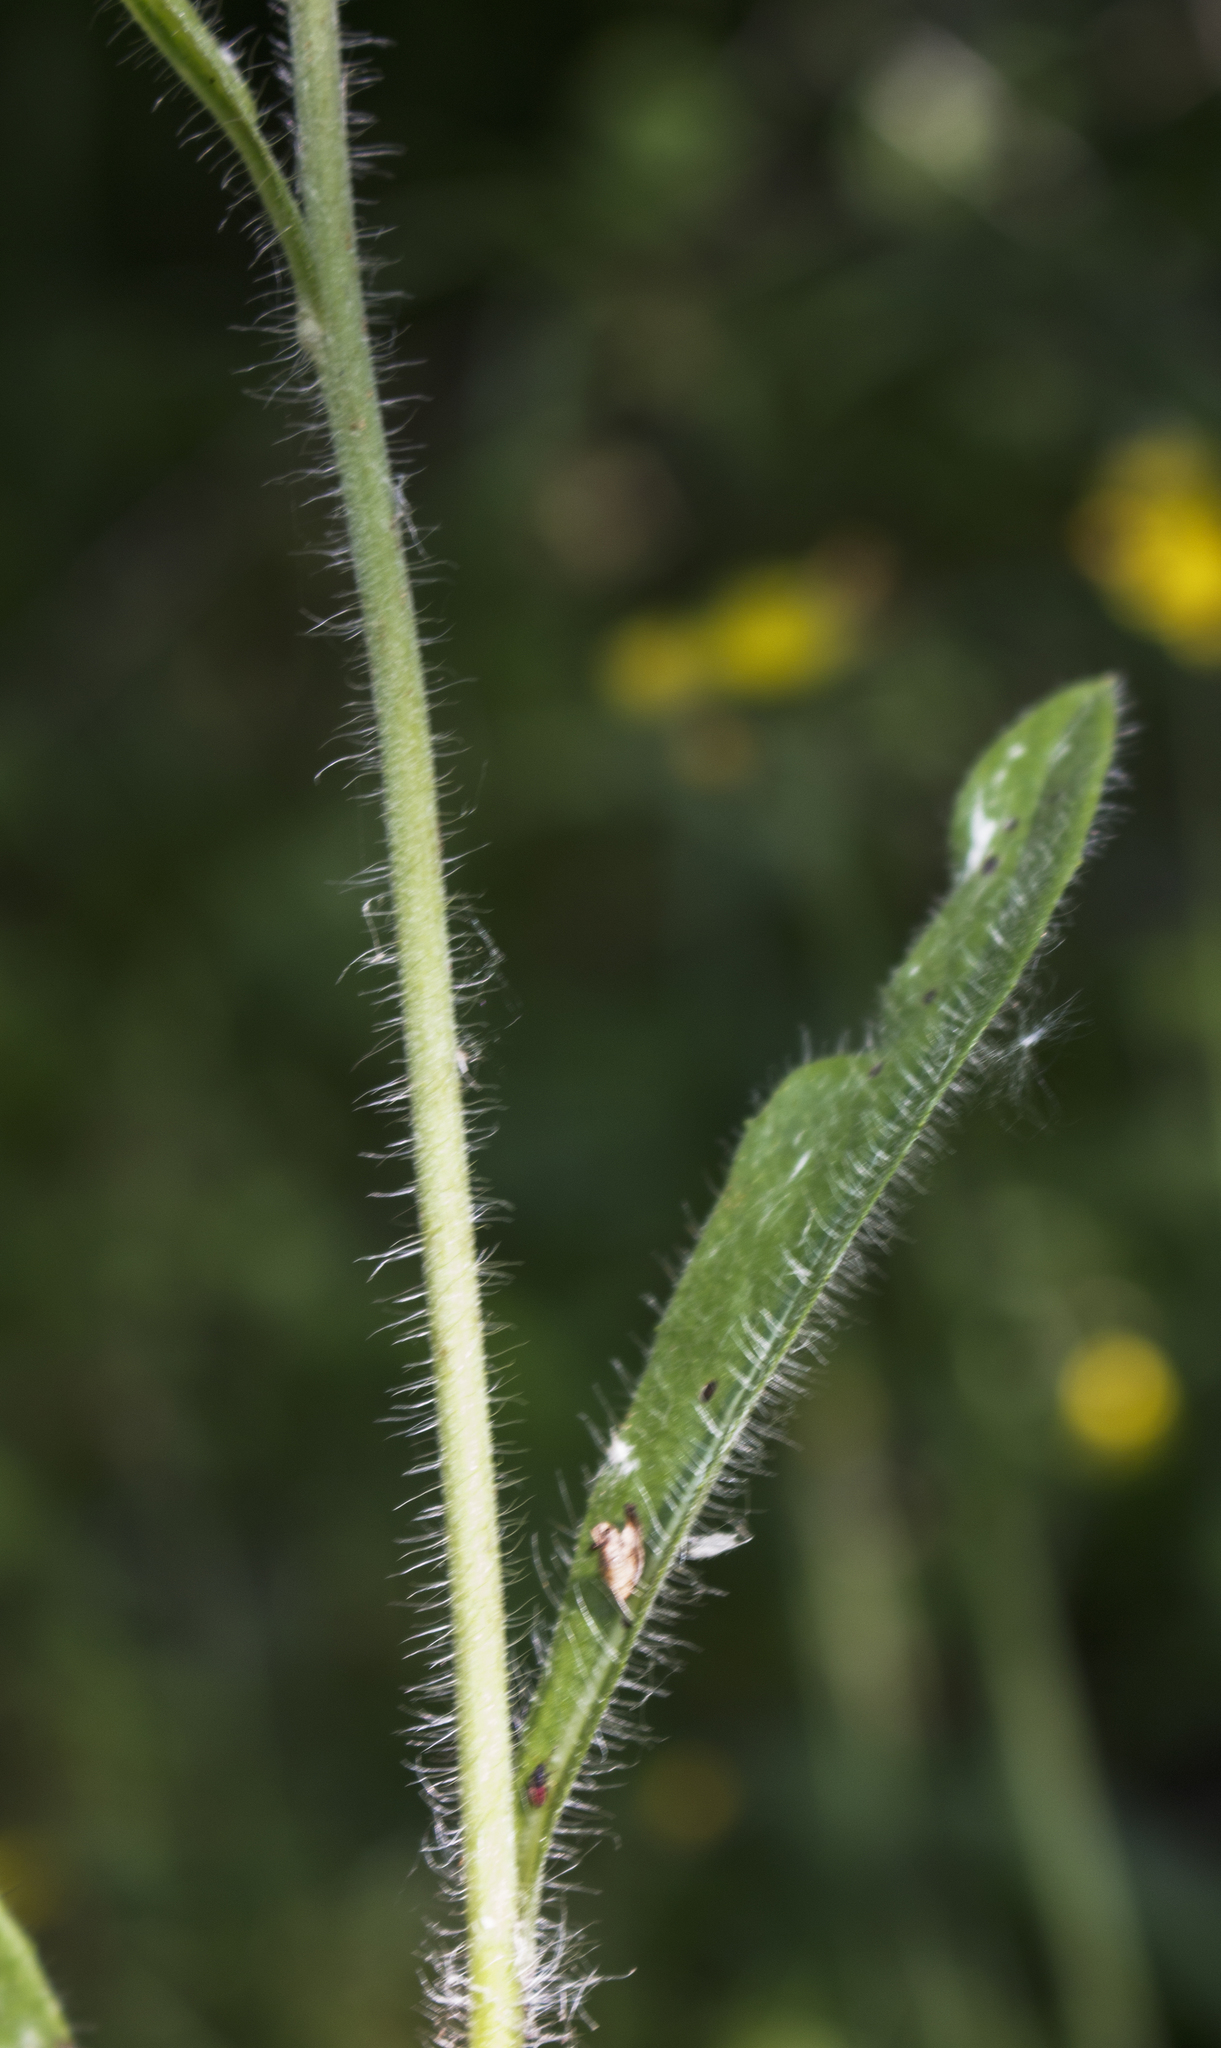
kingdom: Plantae
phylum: Tracheophyta
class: Magnoliopsida
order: Asterales
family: Asteraceae
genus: Pilosella
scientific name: Pilosella caespitosa
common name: Yellow fox-and-cubs
